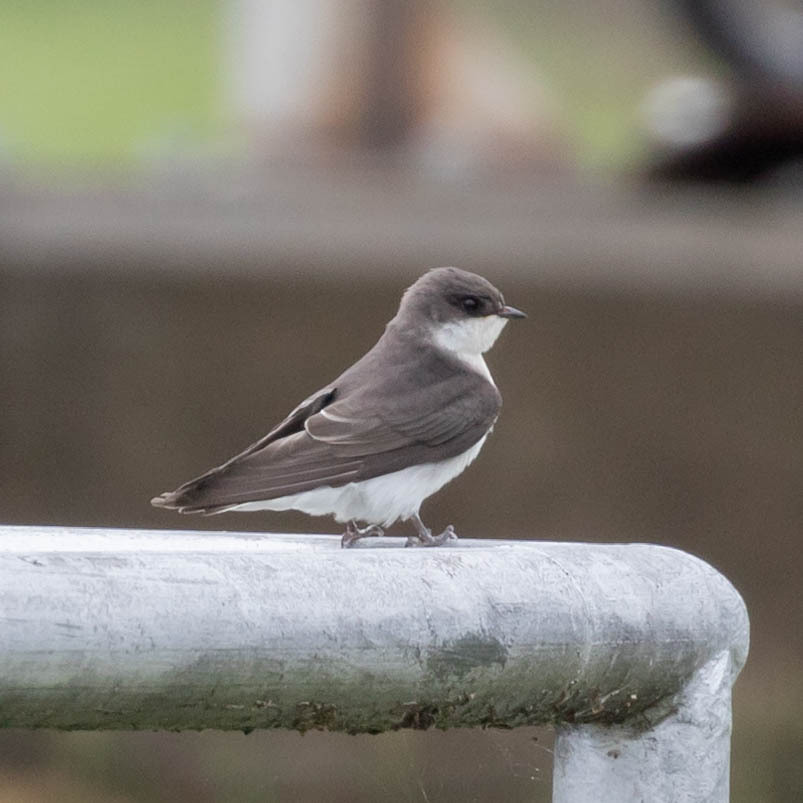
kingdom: Animalia
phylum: Chordata
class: Aves
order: Passeriformes
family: Hirundinidae
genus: Tachycineta
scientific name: Tachycineta bicolor
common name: Tree swallow
